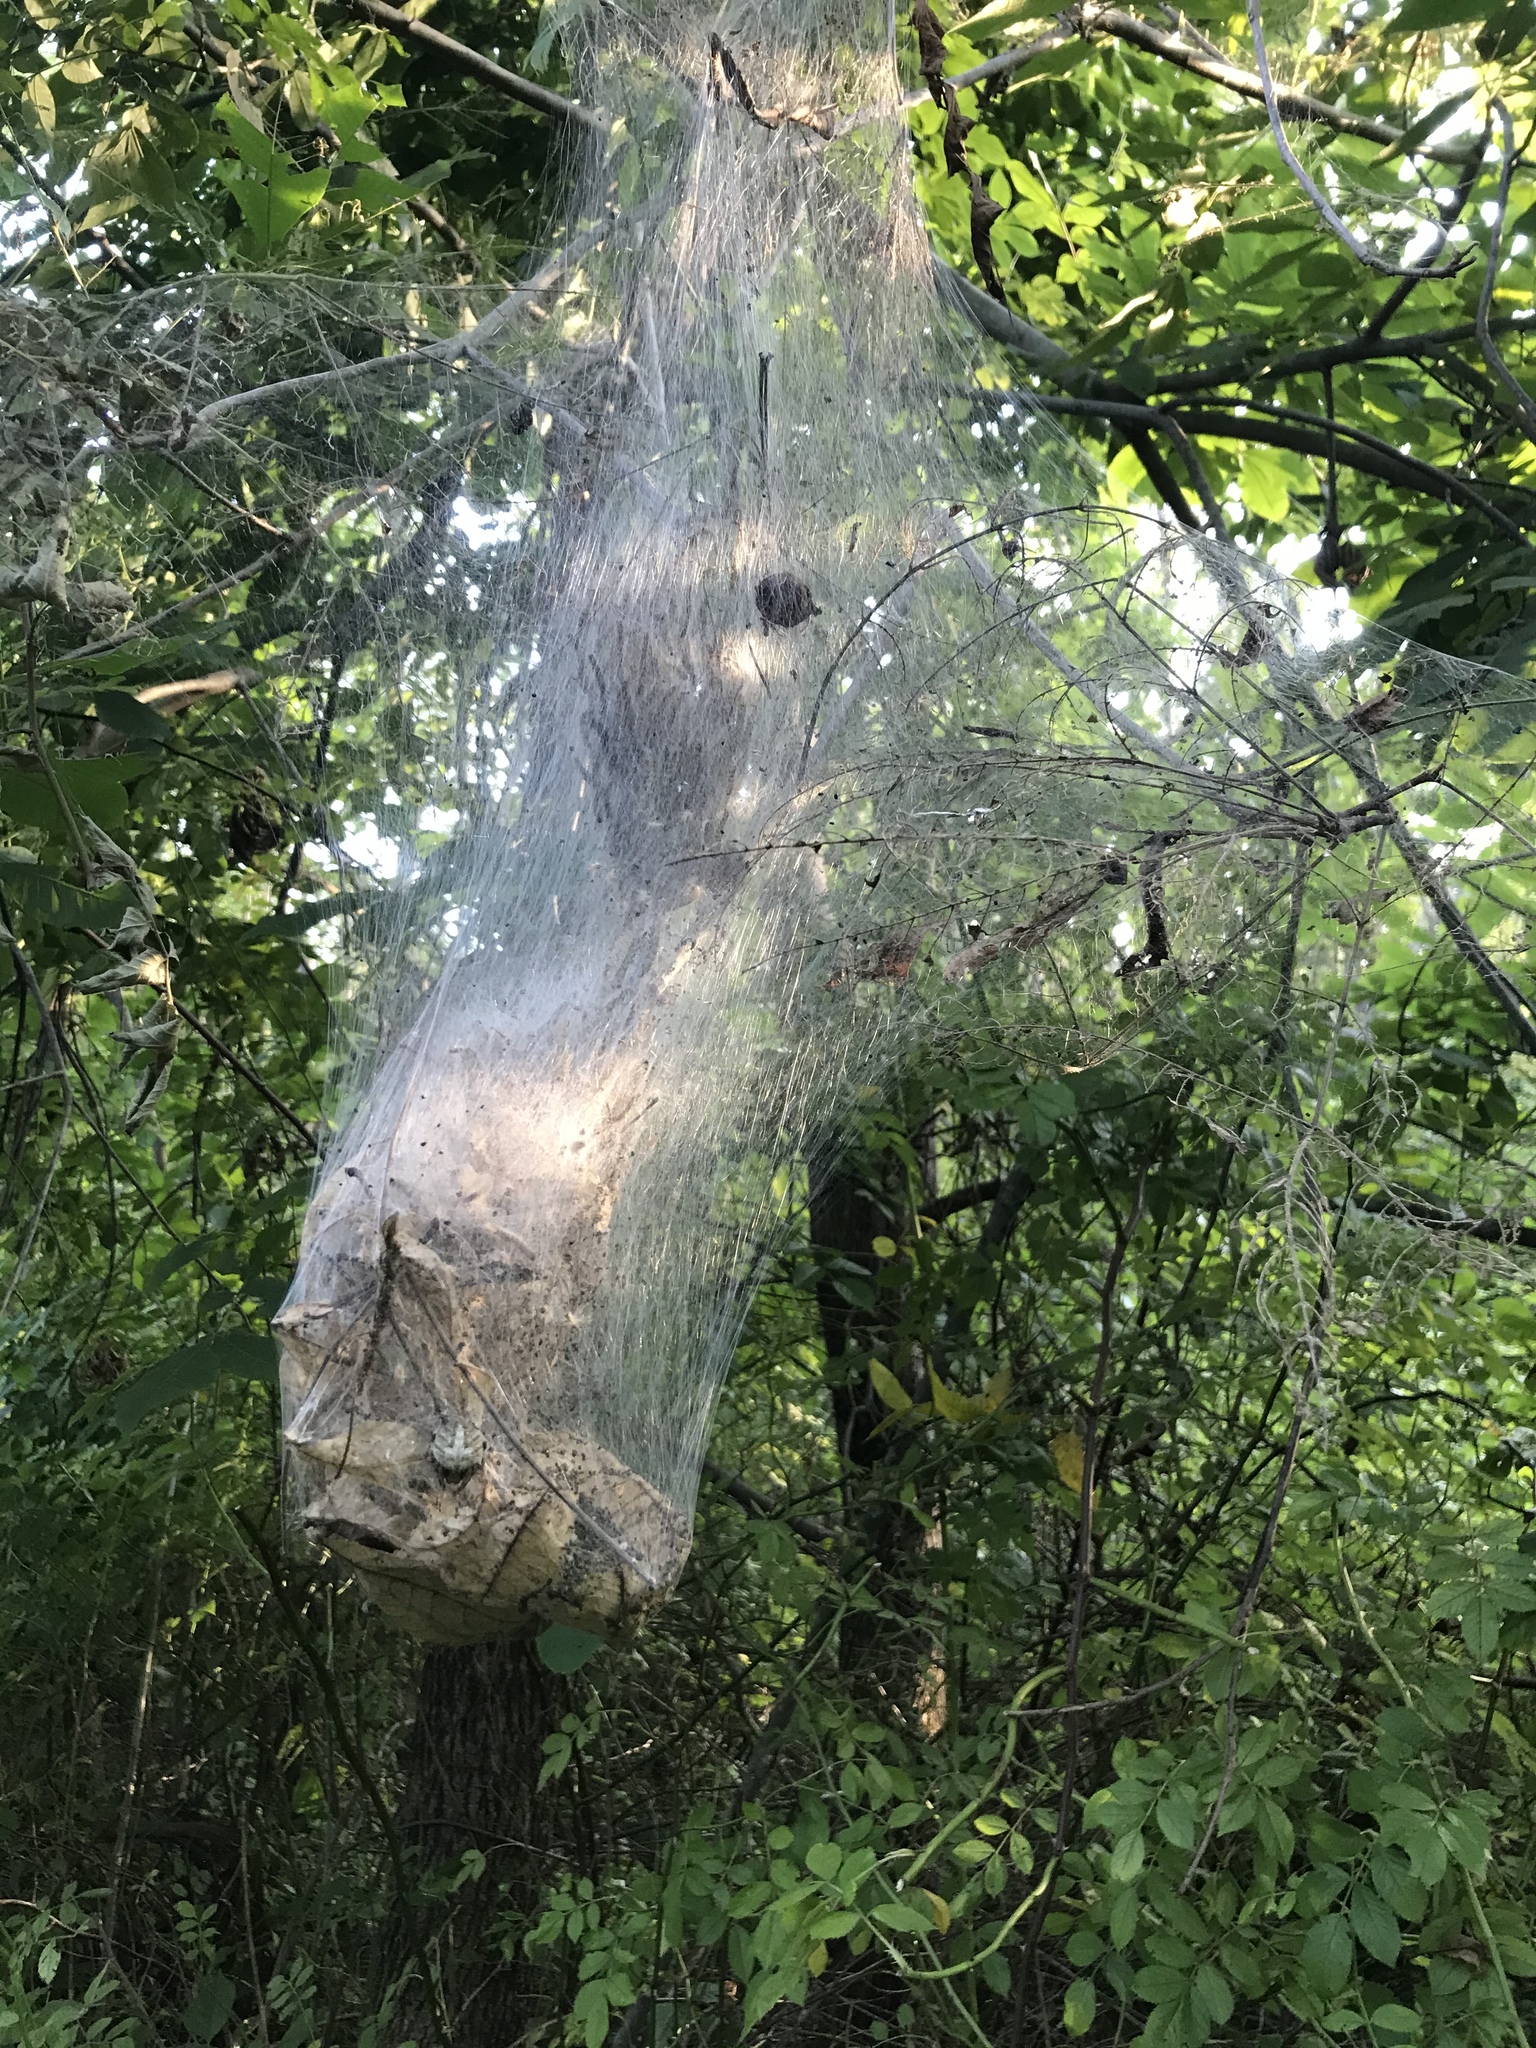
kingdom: Animalia
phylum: Arthropoda
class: Insecta
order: Lepidoptera
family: Erebidae
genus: Hyphantria
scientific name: Hyphantria cunea
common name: American white moth
